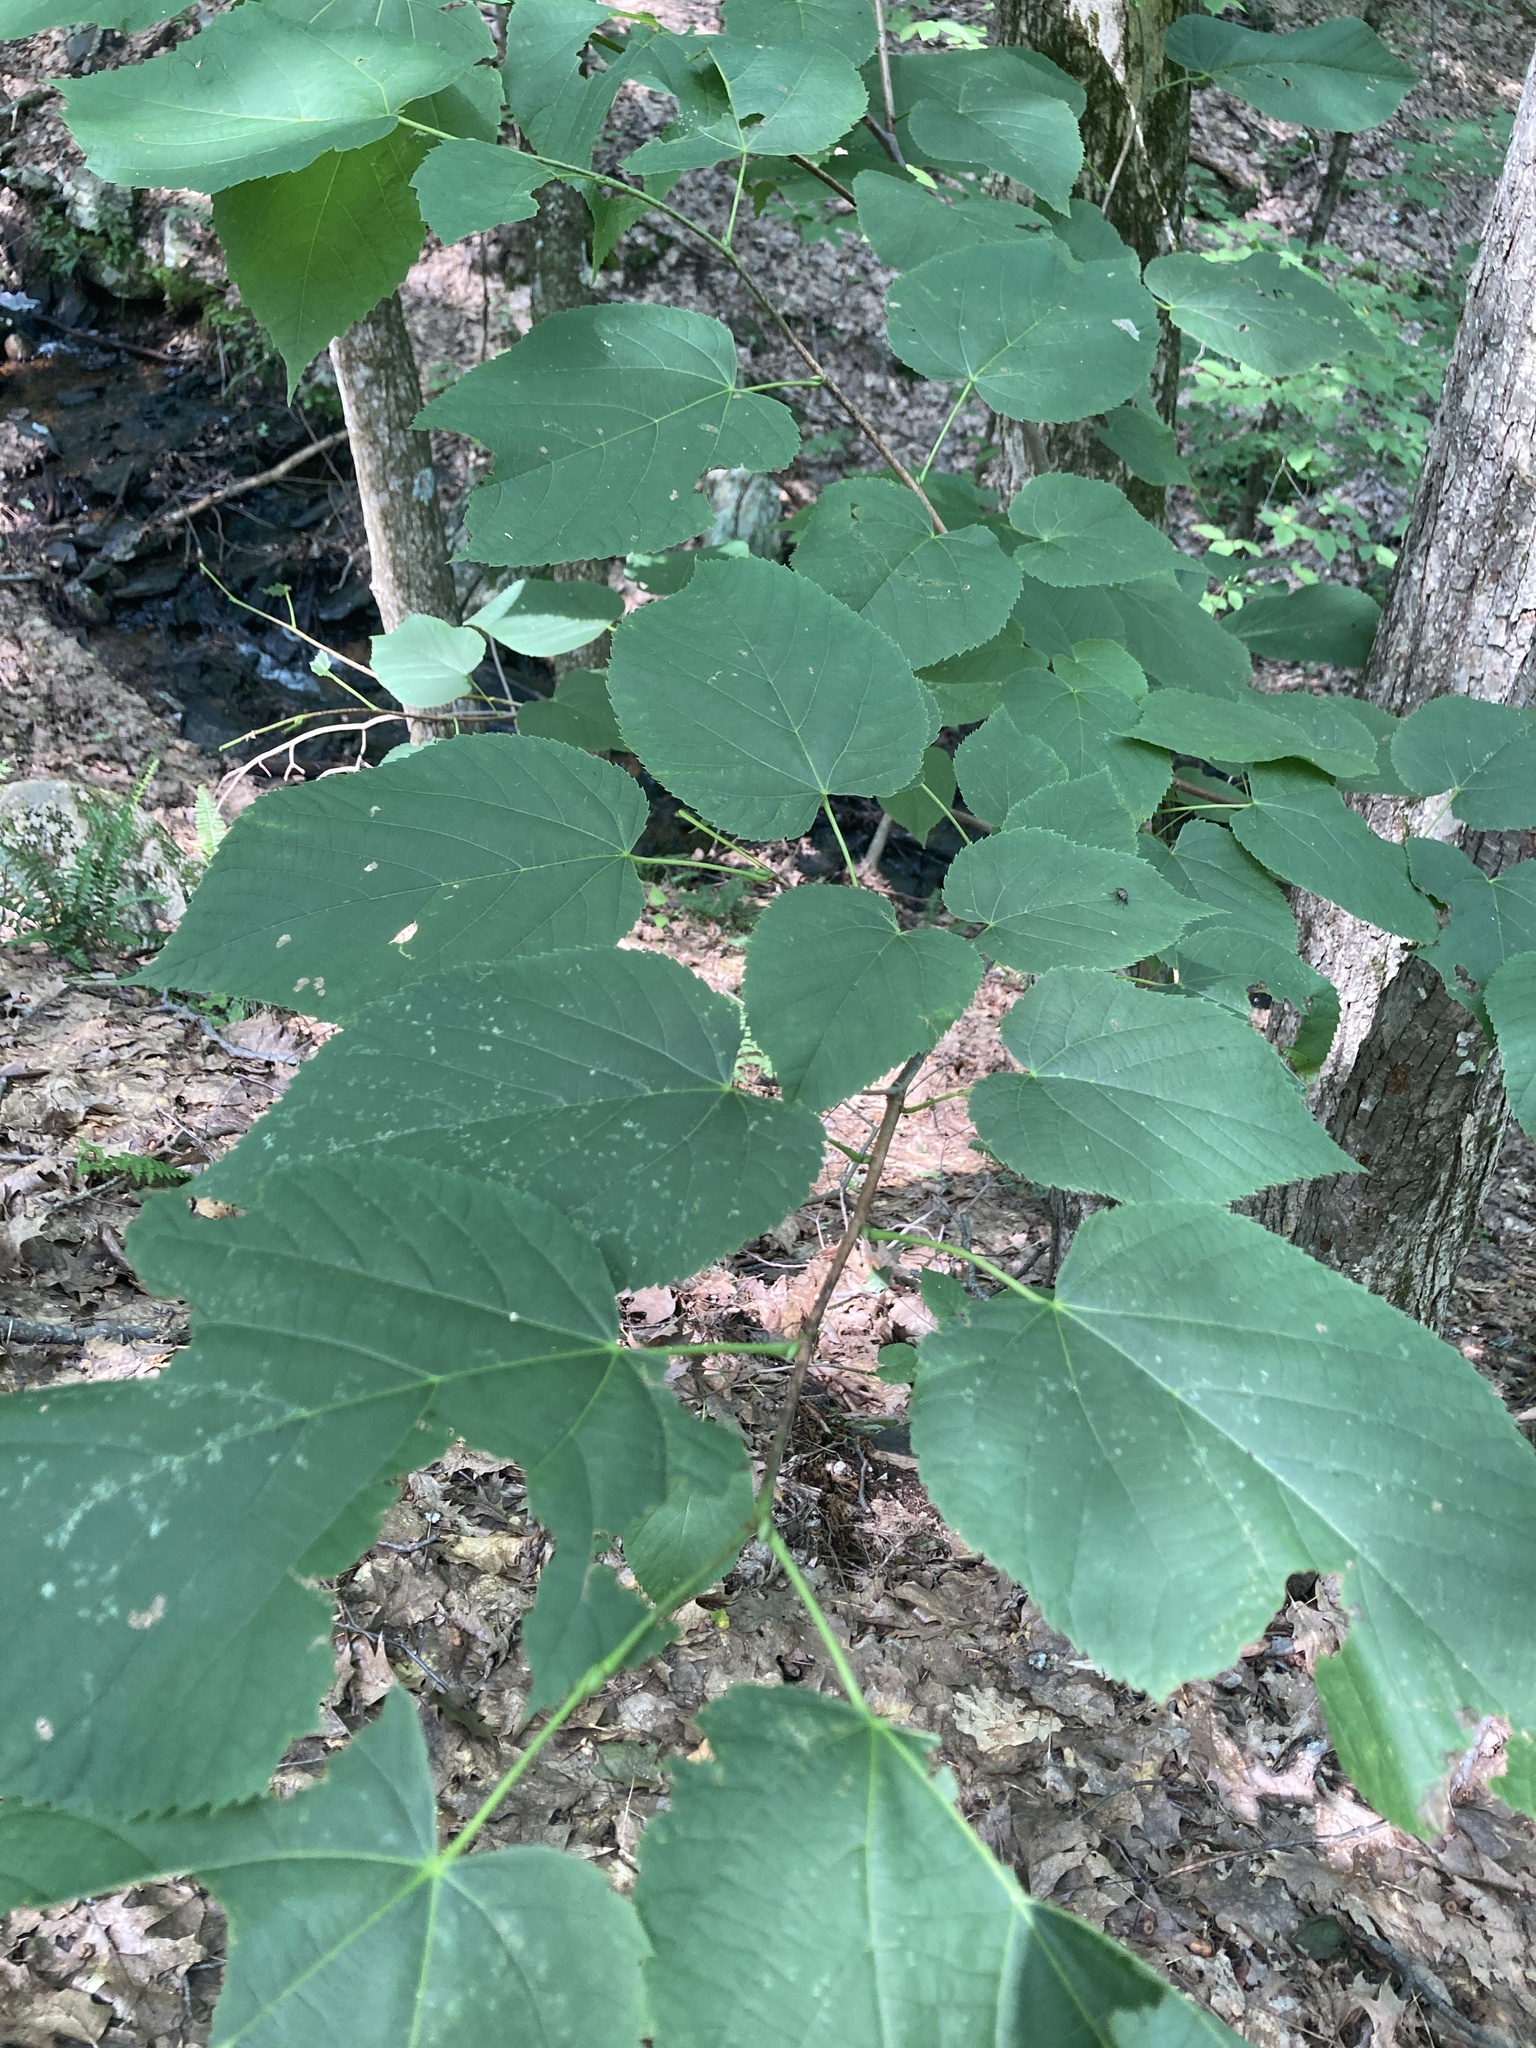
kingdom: Plantae
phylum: Tracheophyta
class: Magnoliopsida
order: Malvales
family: Malvaceae
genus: Tilia
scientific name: Tilia americana
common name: Basswood
